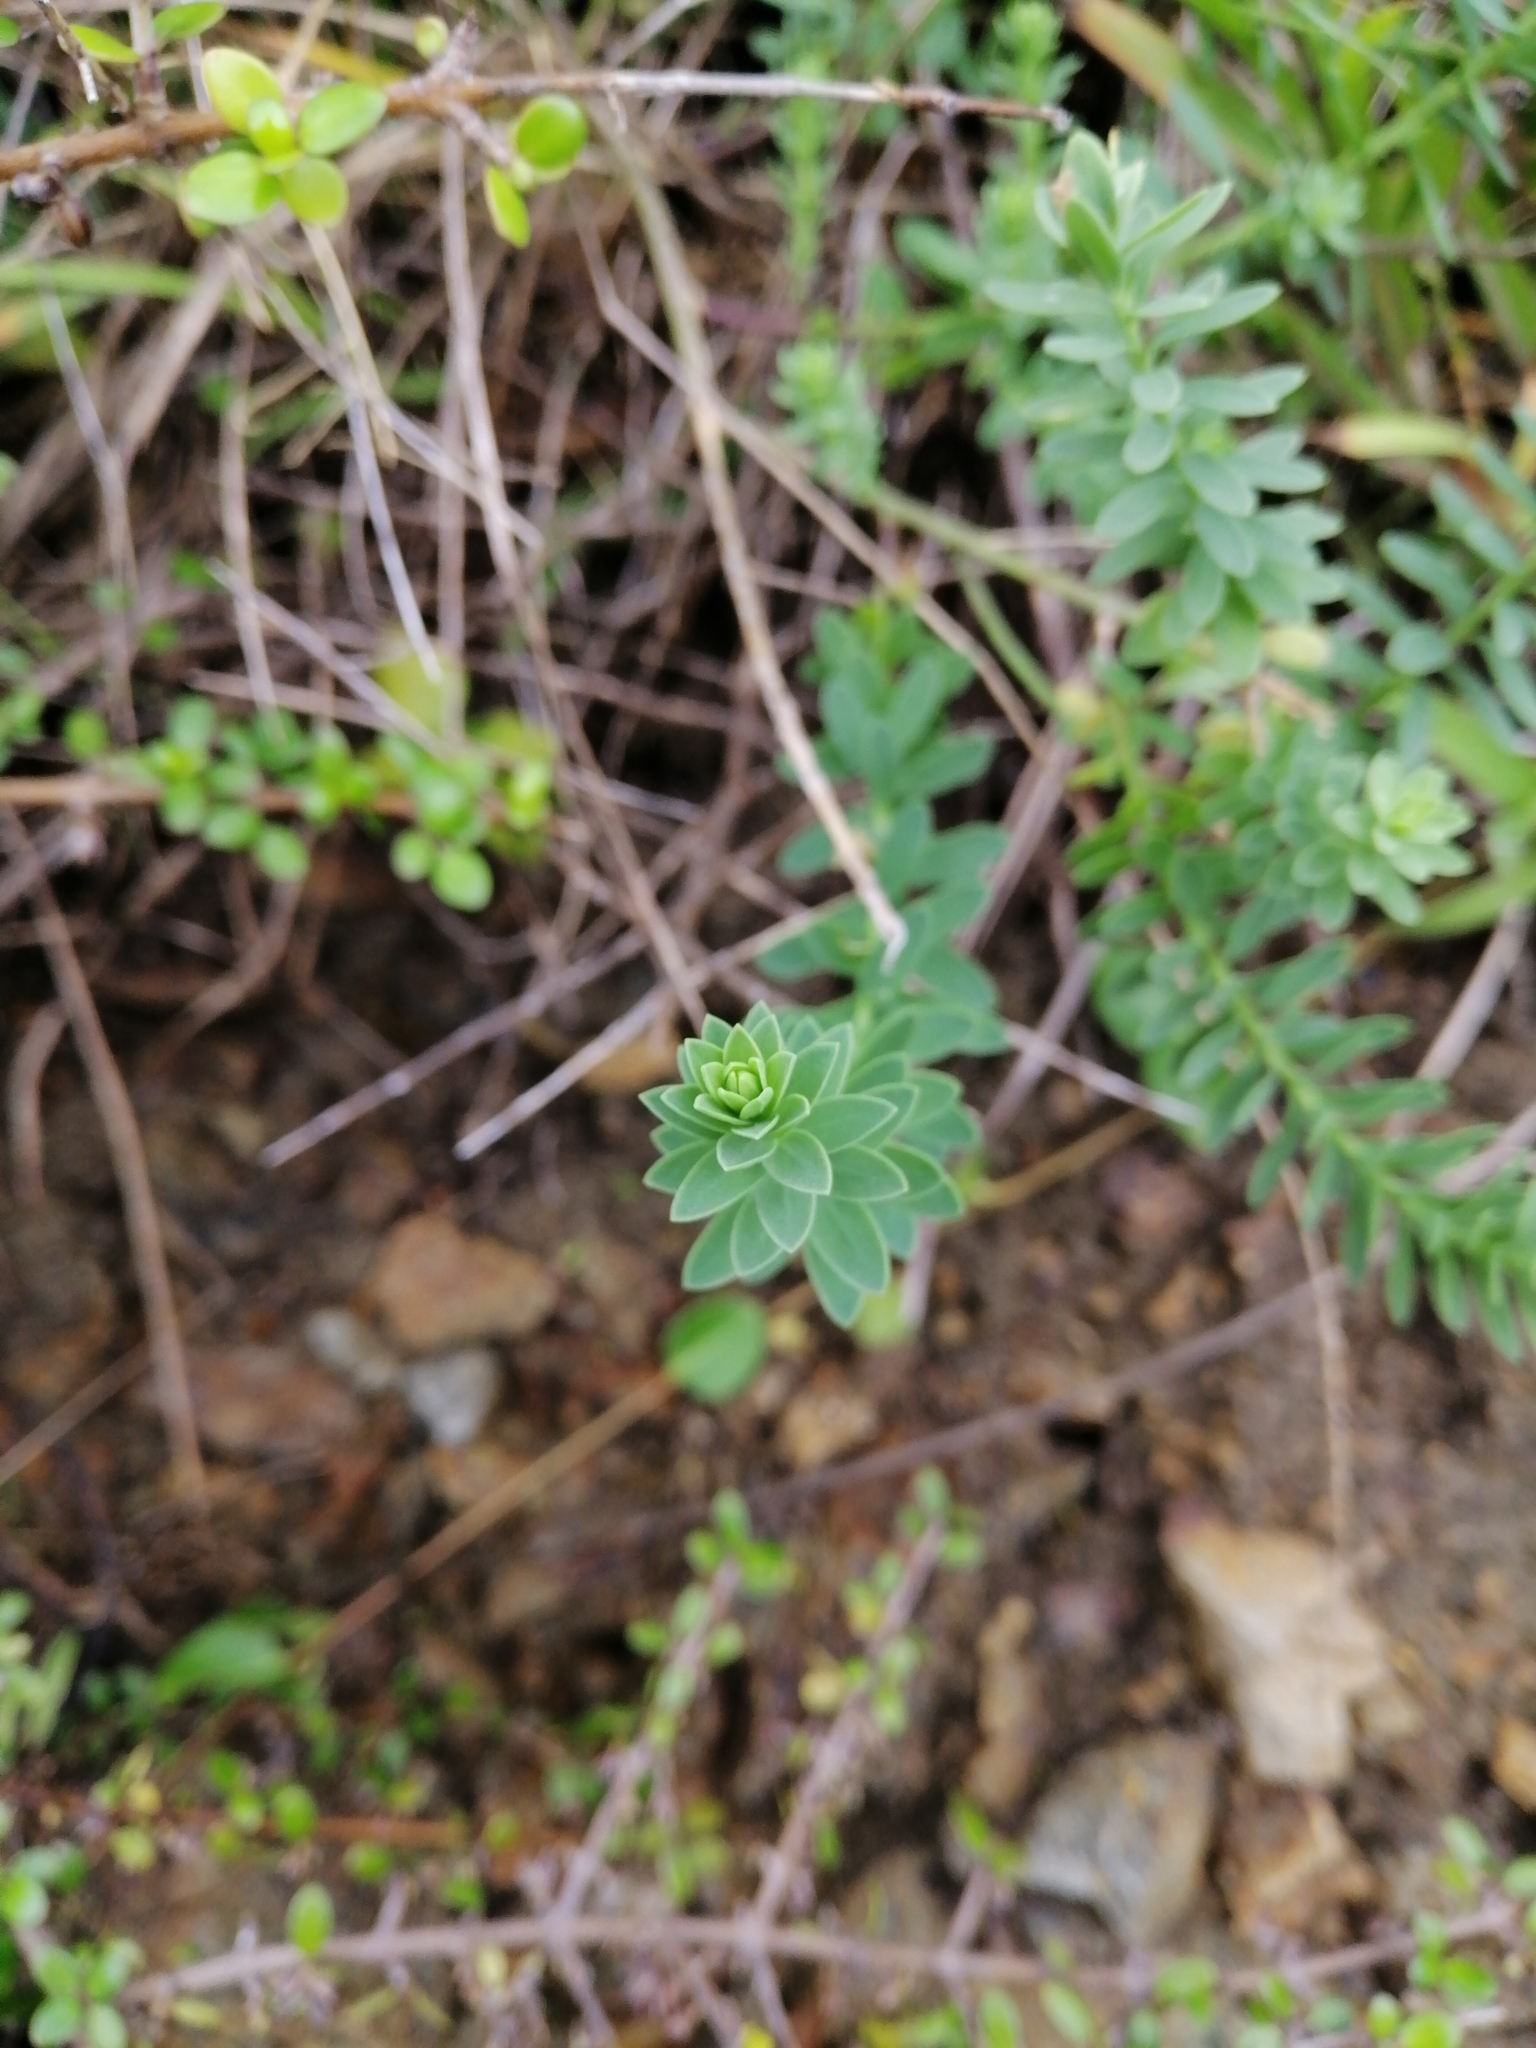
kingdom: Plantae
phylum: Tracheophyta
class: Magnoliopsida
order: Malpighiales
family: Linaceae
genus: Linum
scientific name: Linum monogynum
